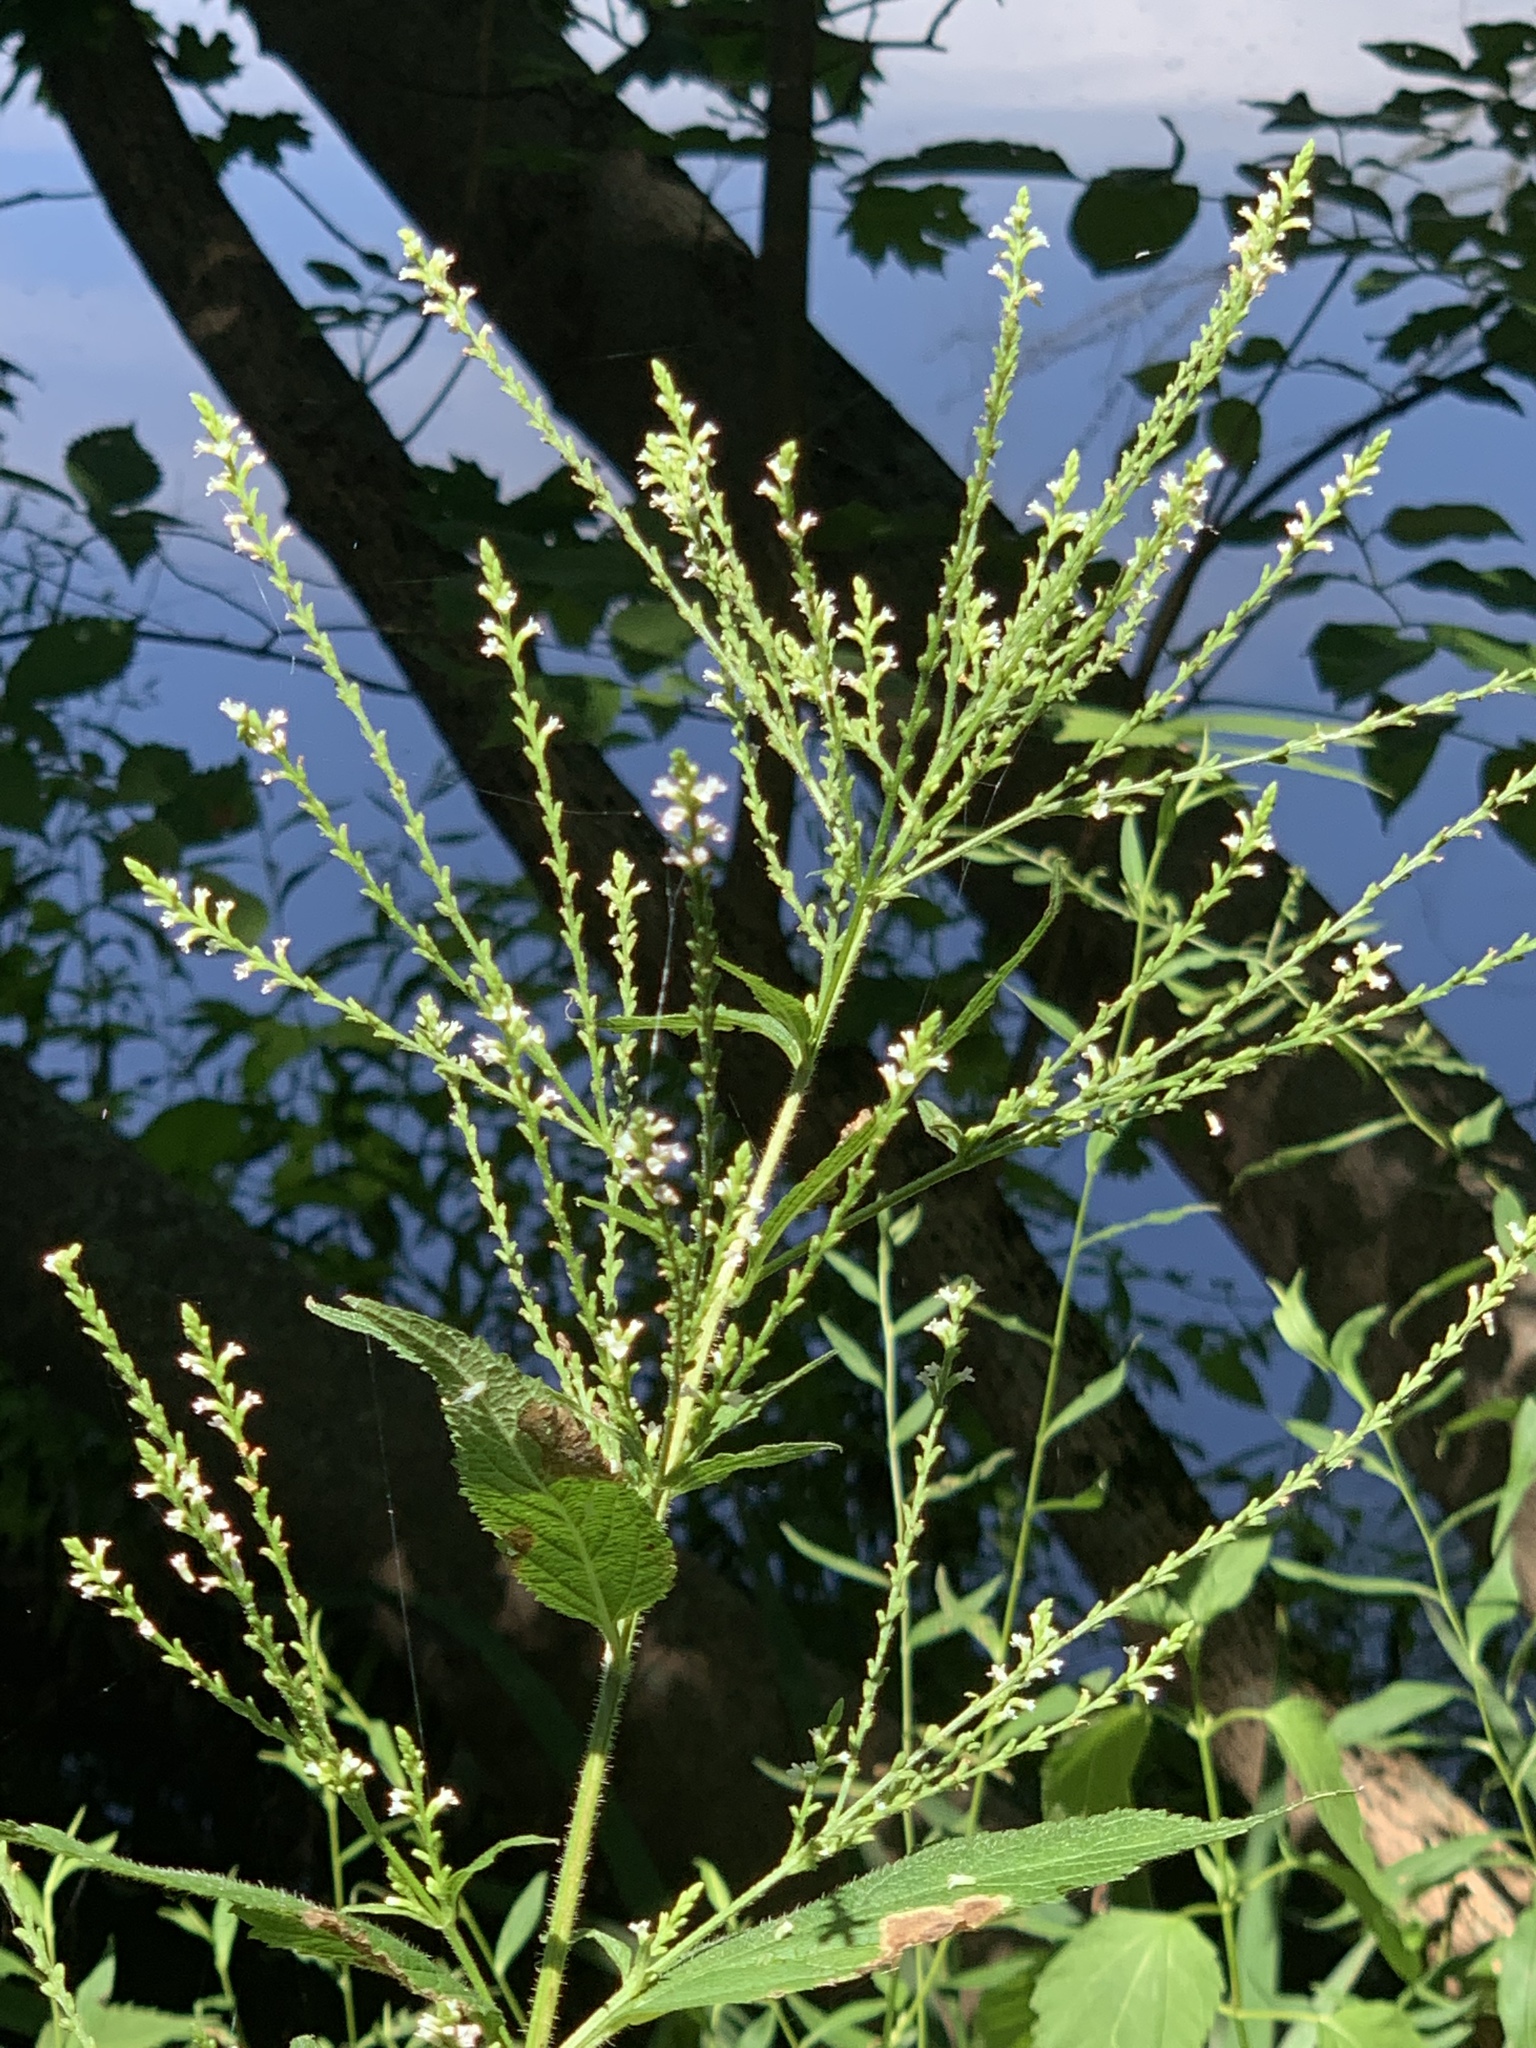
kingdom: Plantae
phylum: Tracheophyta
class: Magnoliopsida
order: Lamiales
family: Verbenaceae
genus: Verbena
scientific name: Verbena urticifolia
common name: Nettle-leaved vervain
